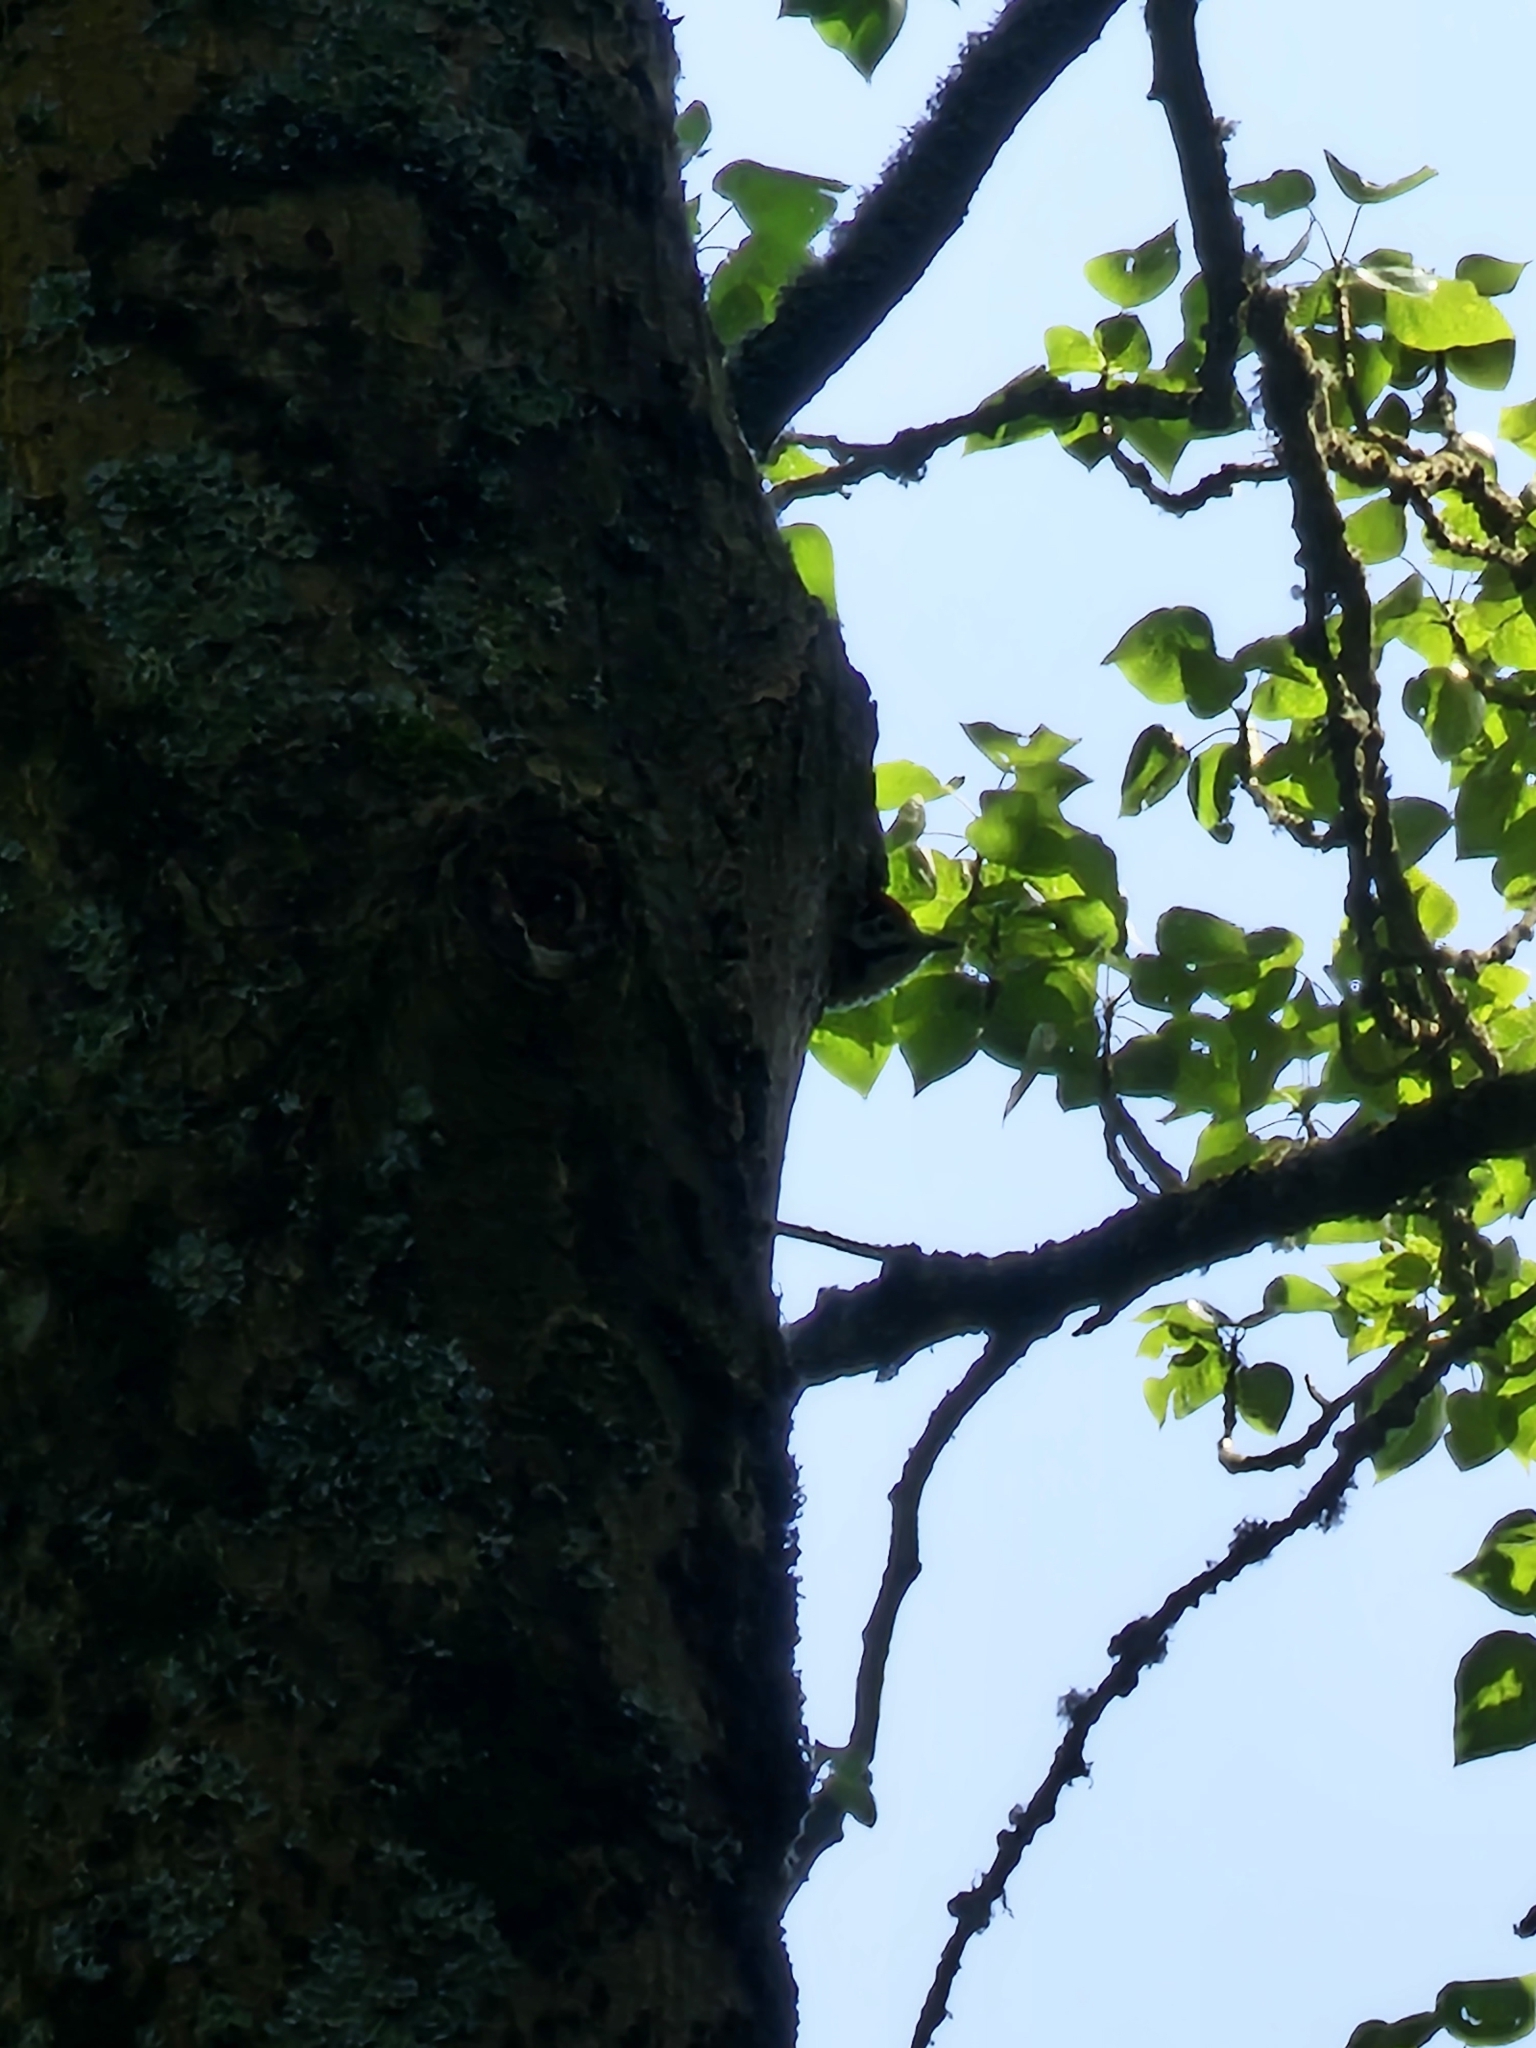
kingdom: Animalia
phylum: Chordata
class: Aves
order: Piciformes
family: Picidae
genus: Dendrocopos
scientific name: Dendrocopos major
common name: Great spotted woodpecker
